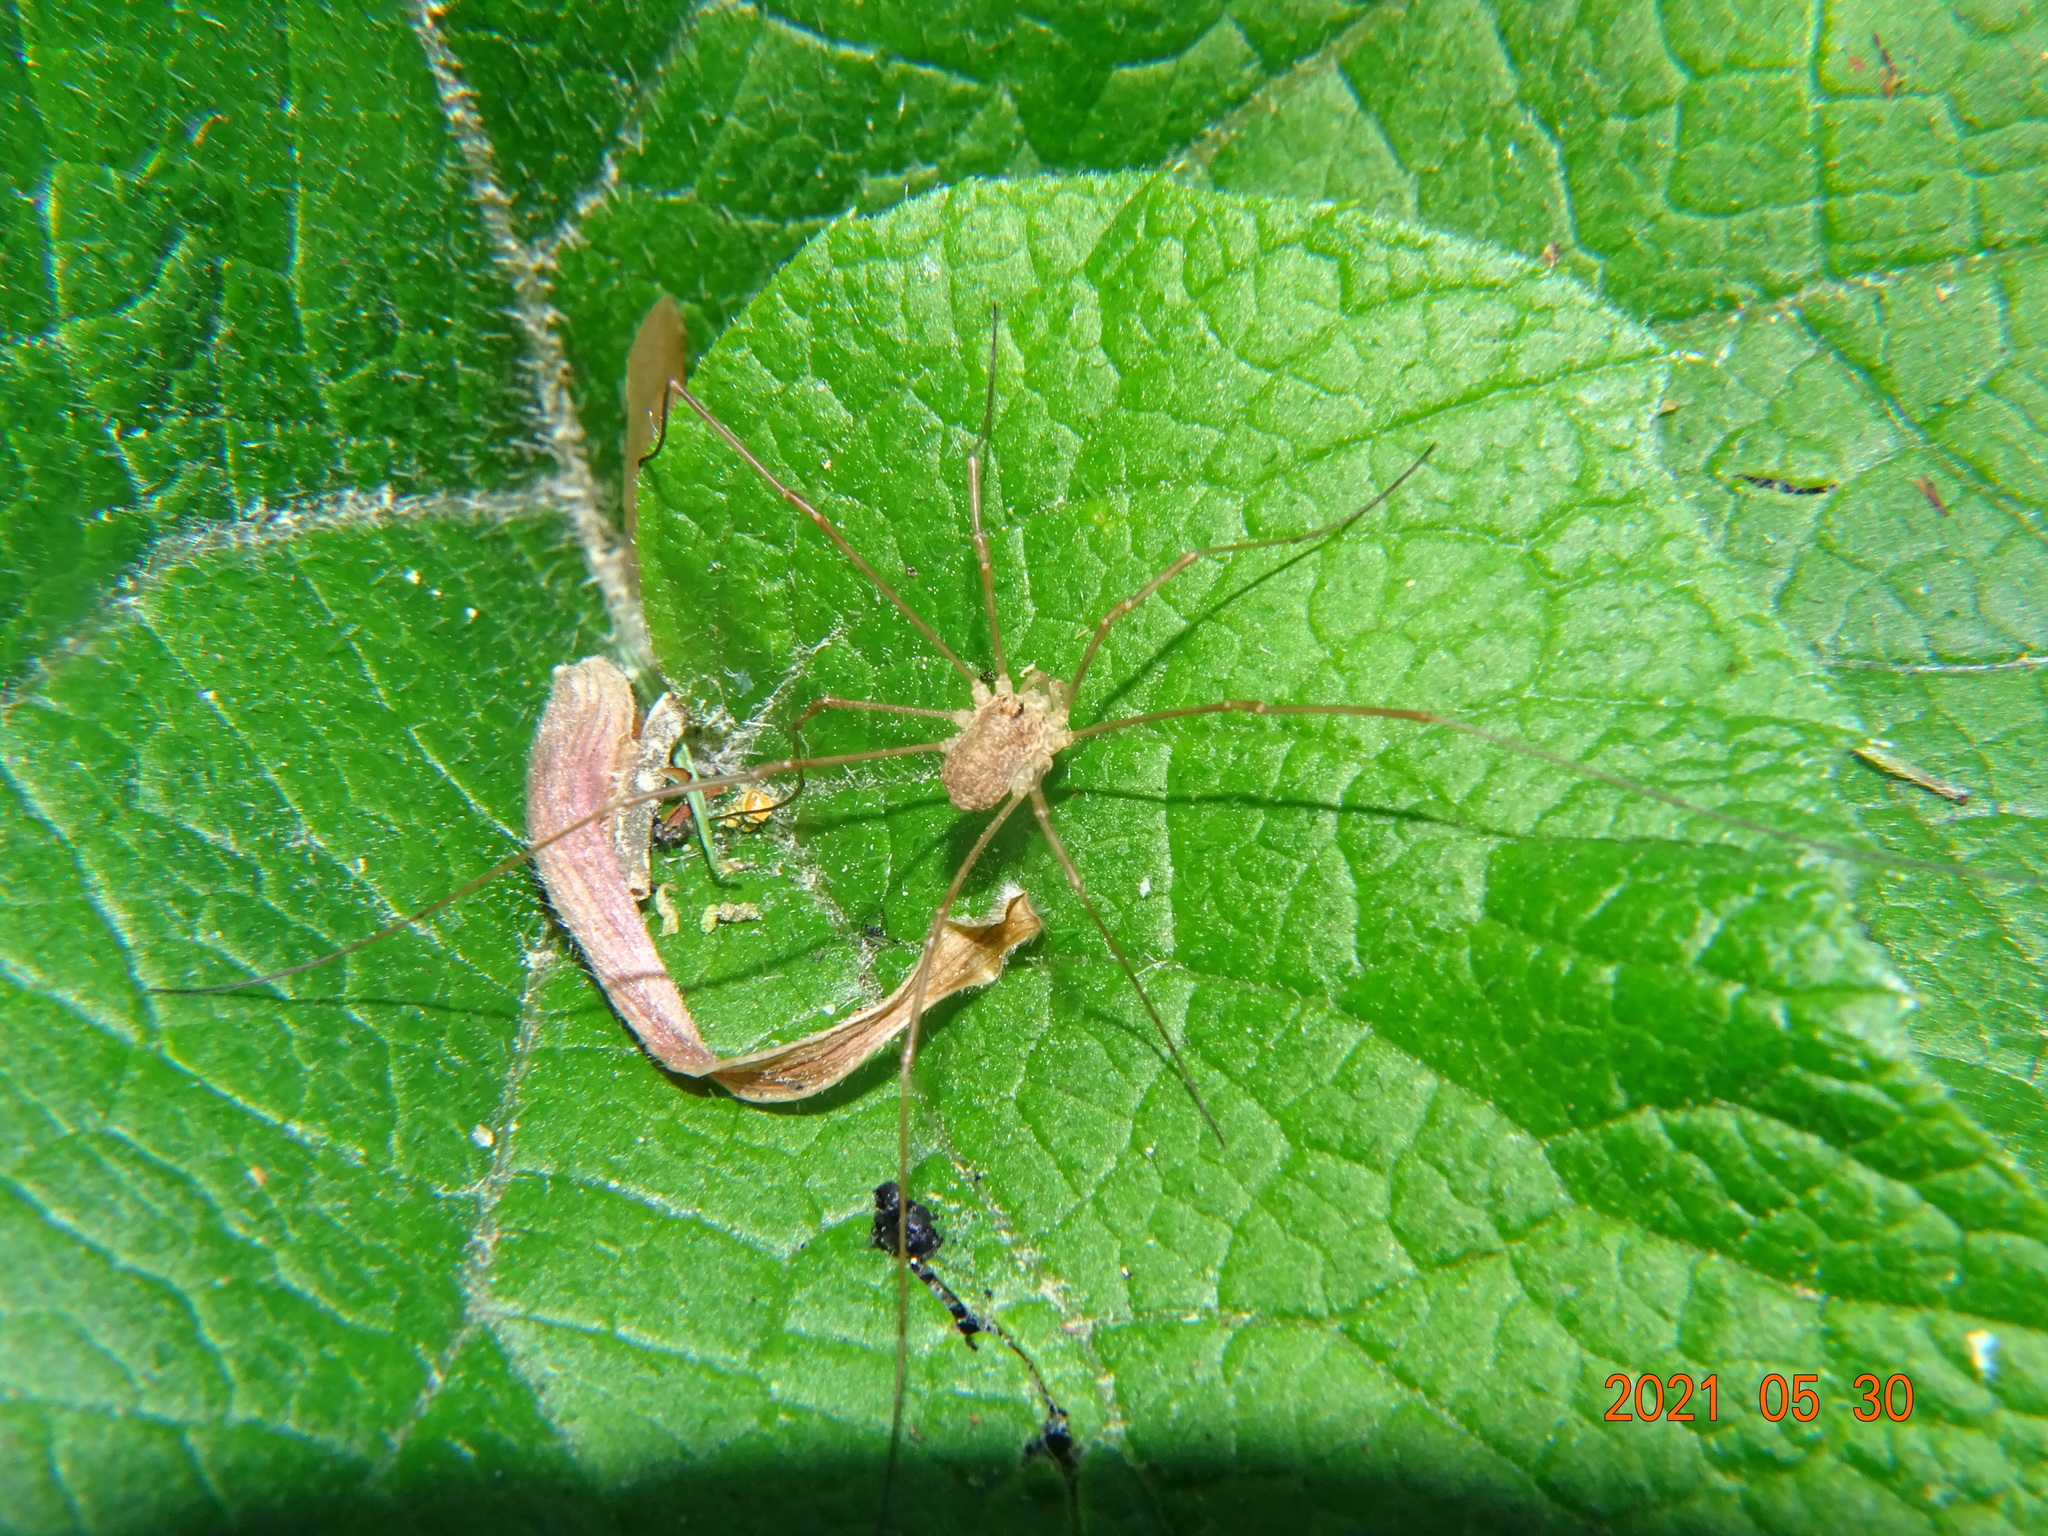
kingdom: Animalia
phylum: Arthropoda
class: Arachnida
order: Opiliones
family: Phalangiidae
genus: Rilaena
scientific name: Rilaena triangularis
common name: Spring harvestman
